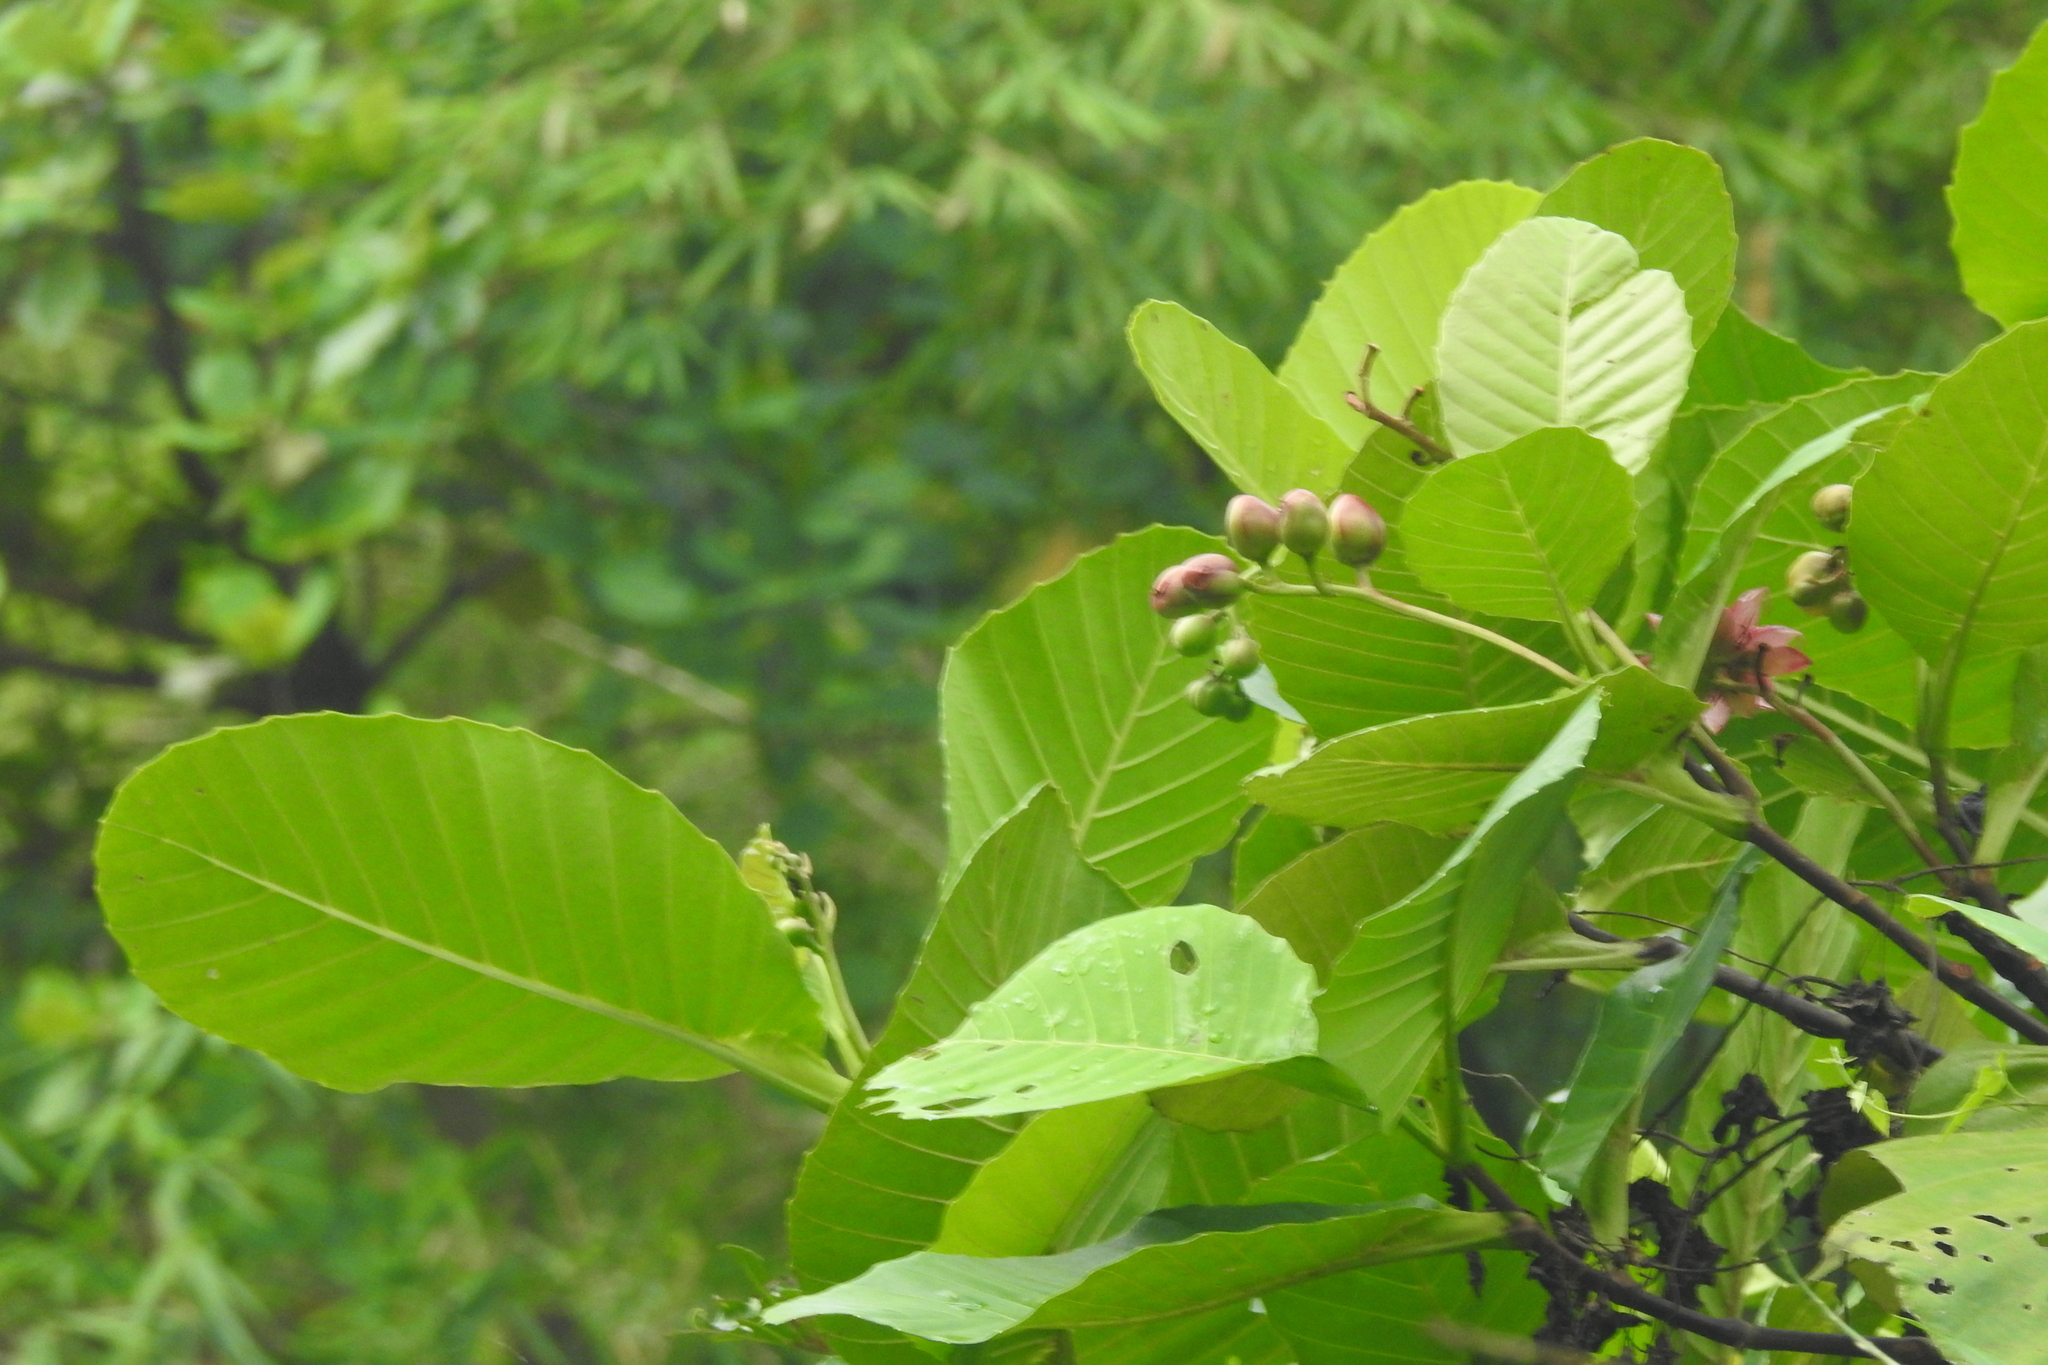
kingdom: Plantae
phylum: Tracheophyta
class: Magnoliopsida
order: Dilleniales
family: Dilleniaceae
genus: Dillenia
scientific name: Dillenia suffruticosa
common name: Shrubby dillenia
